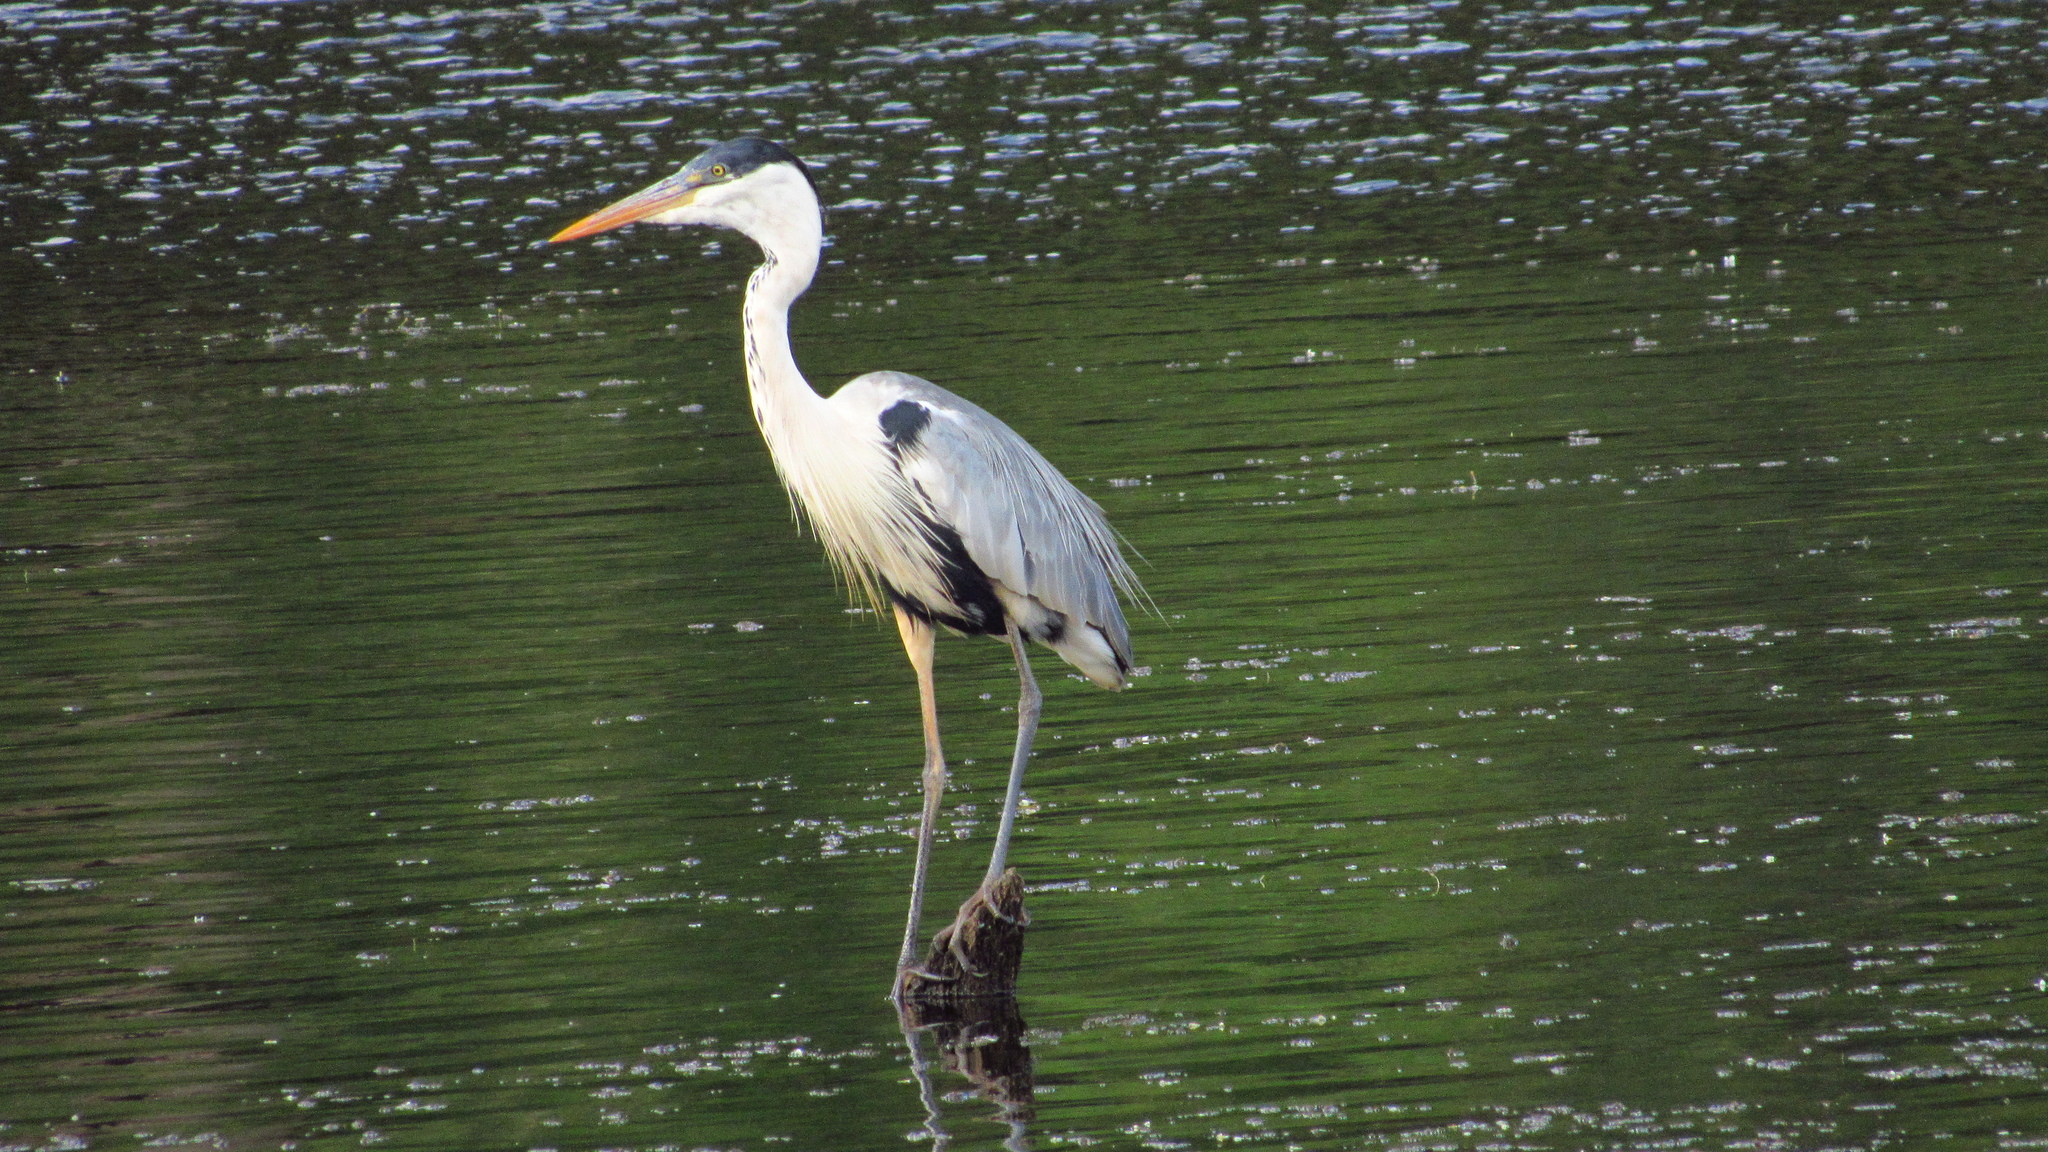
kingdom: Animalia
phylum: Chordata
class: Aves
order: Pelecaniformes
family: Ardeidae
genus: Ardea
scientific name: Ardea cocoi
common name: Cocoi heron
